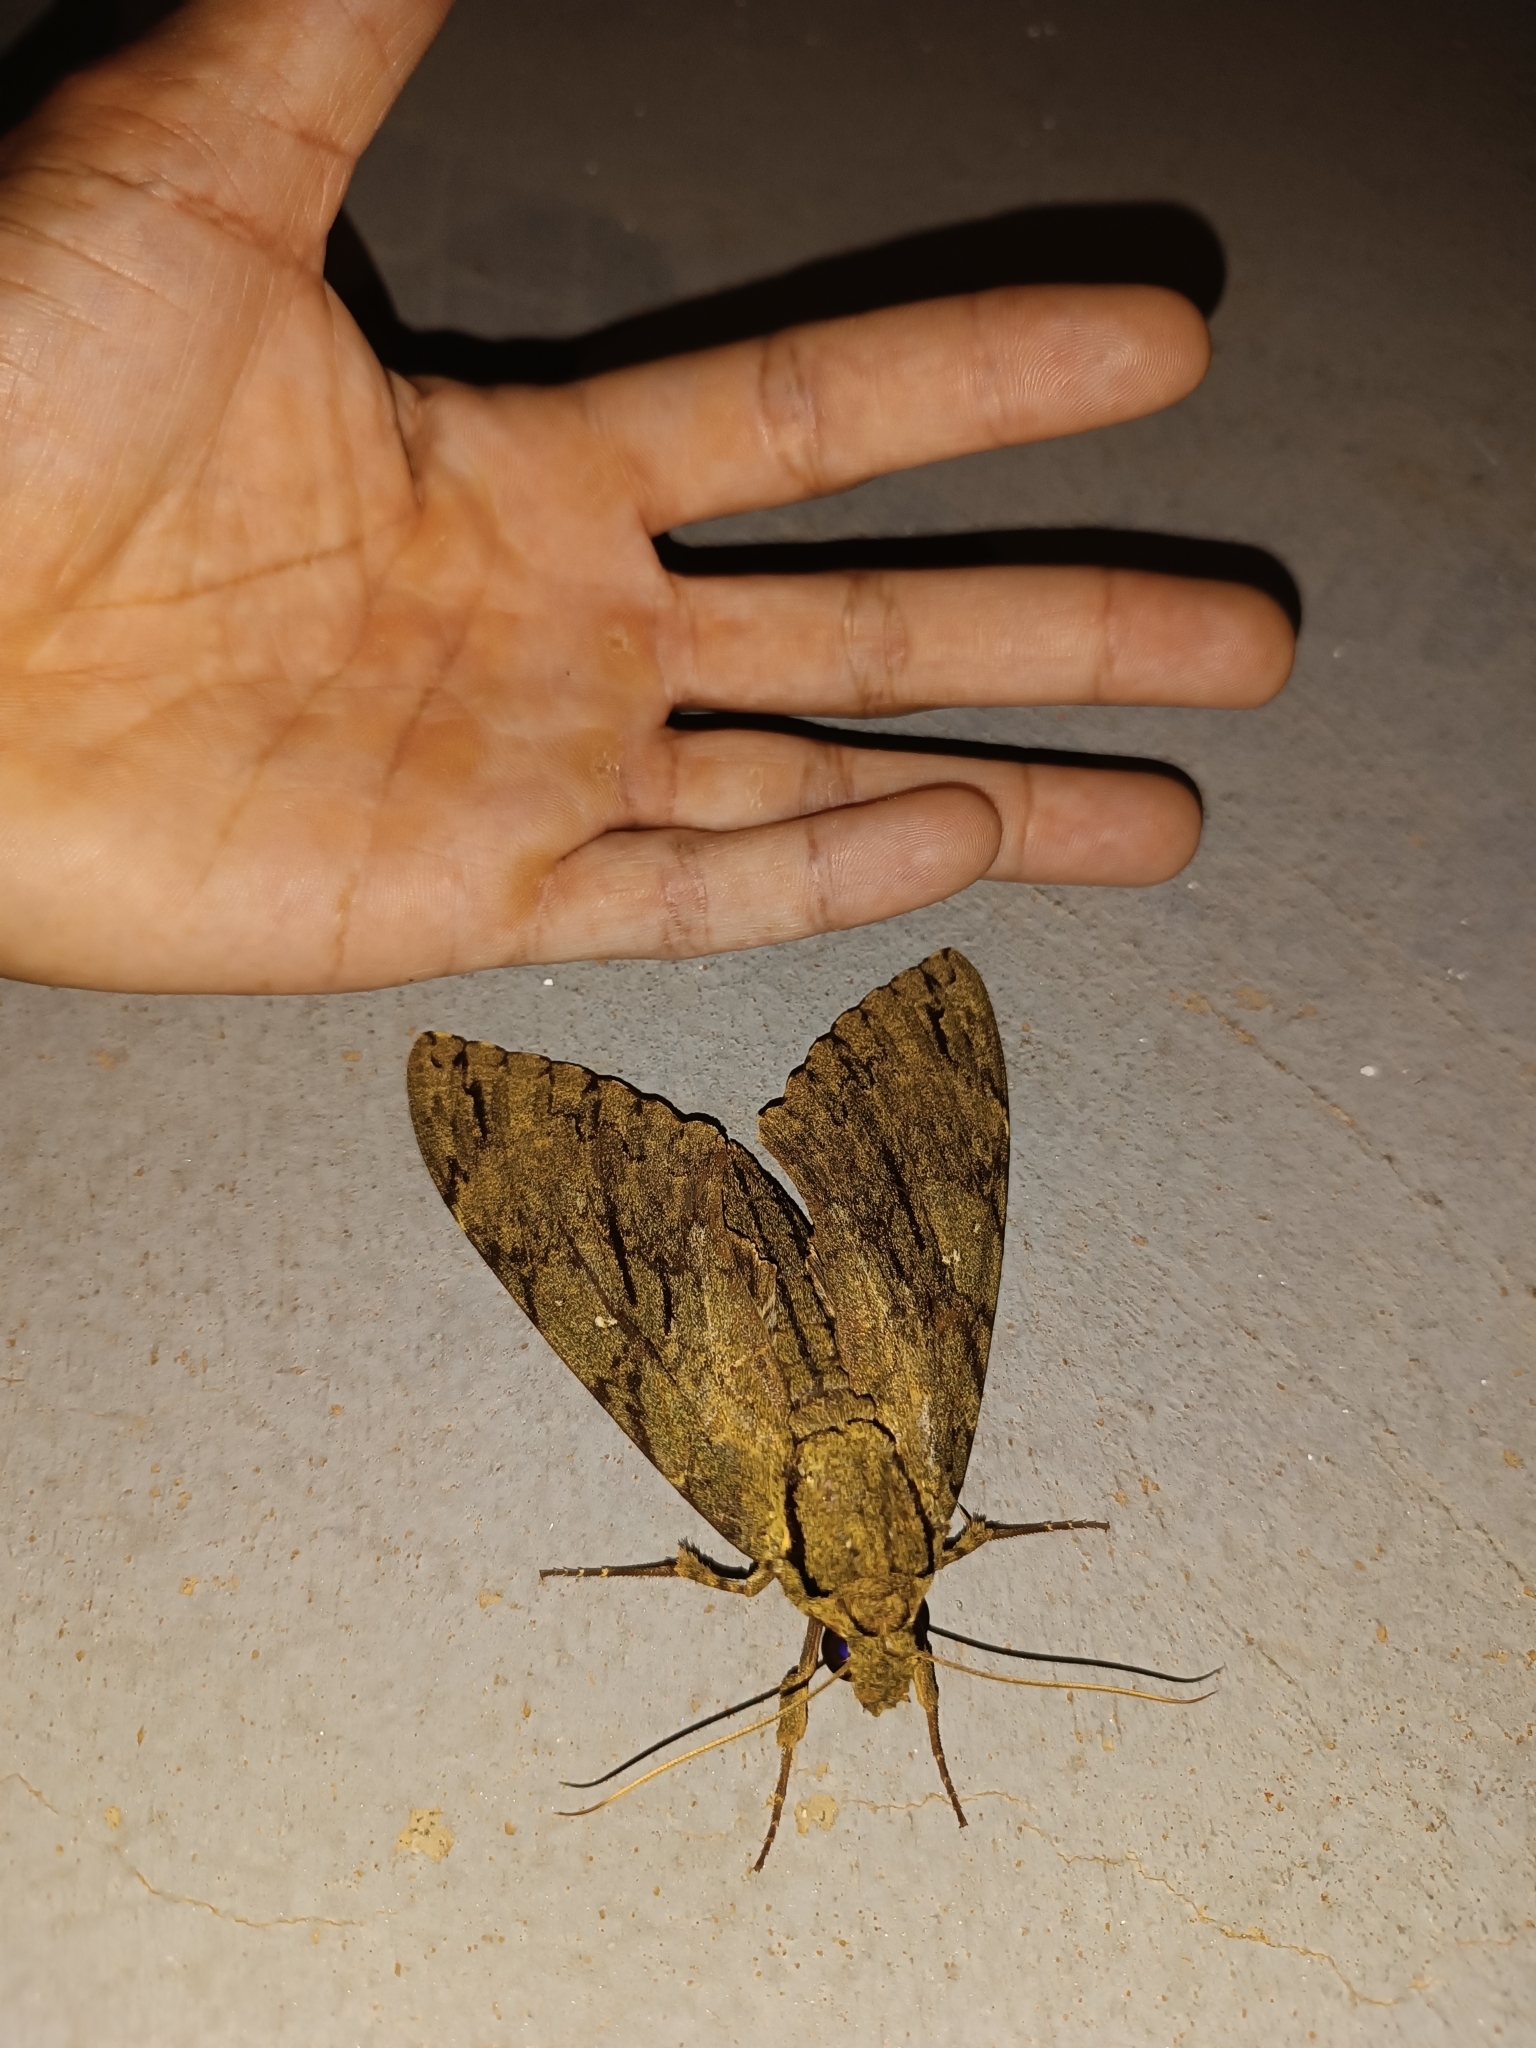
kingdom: Animalia
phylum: Arthropoda
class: Insecta
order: Lepidoptera
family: Sphingidae
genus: Cocytius
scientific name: Cocytius lucifer
